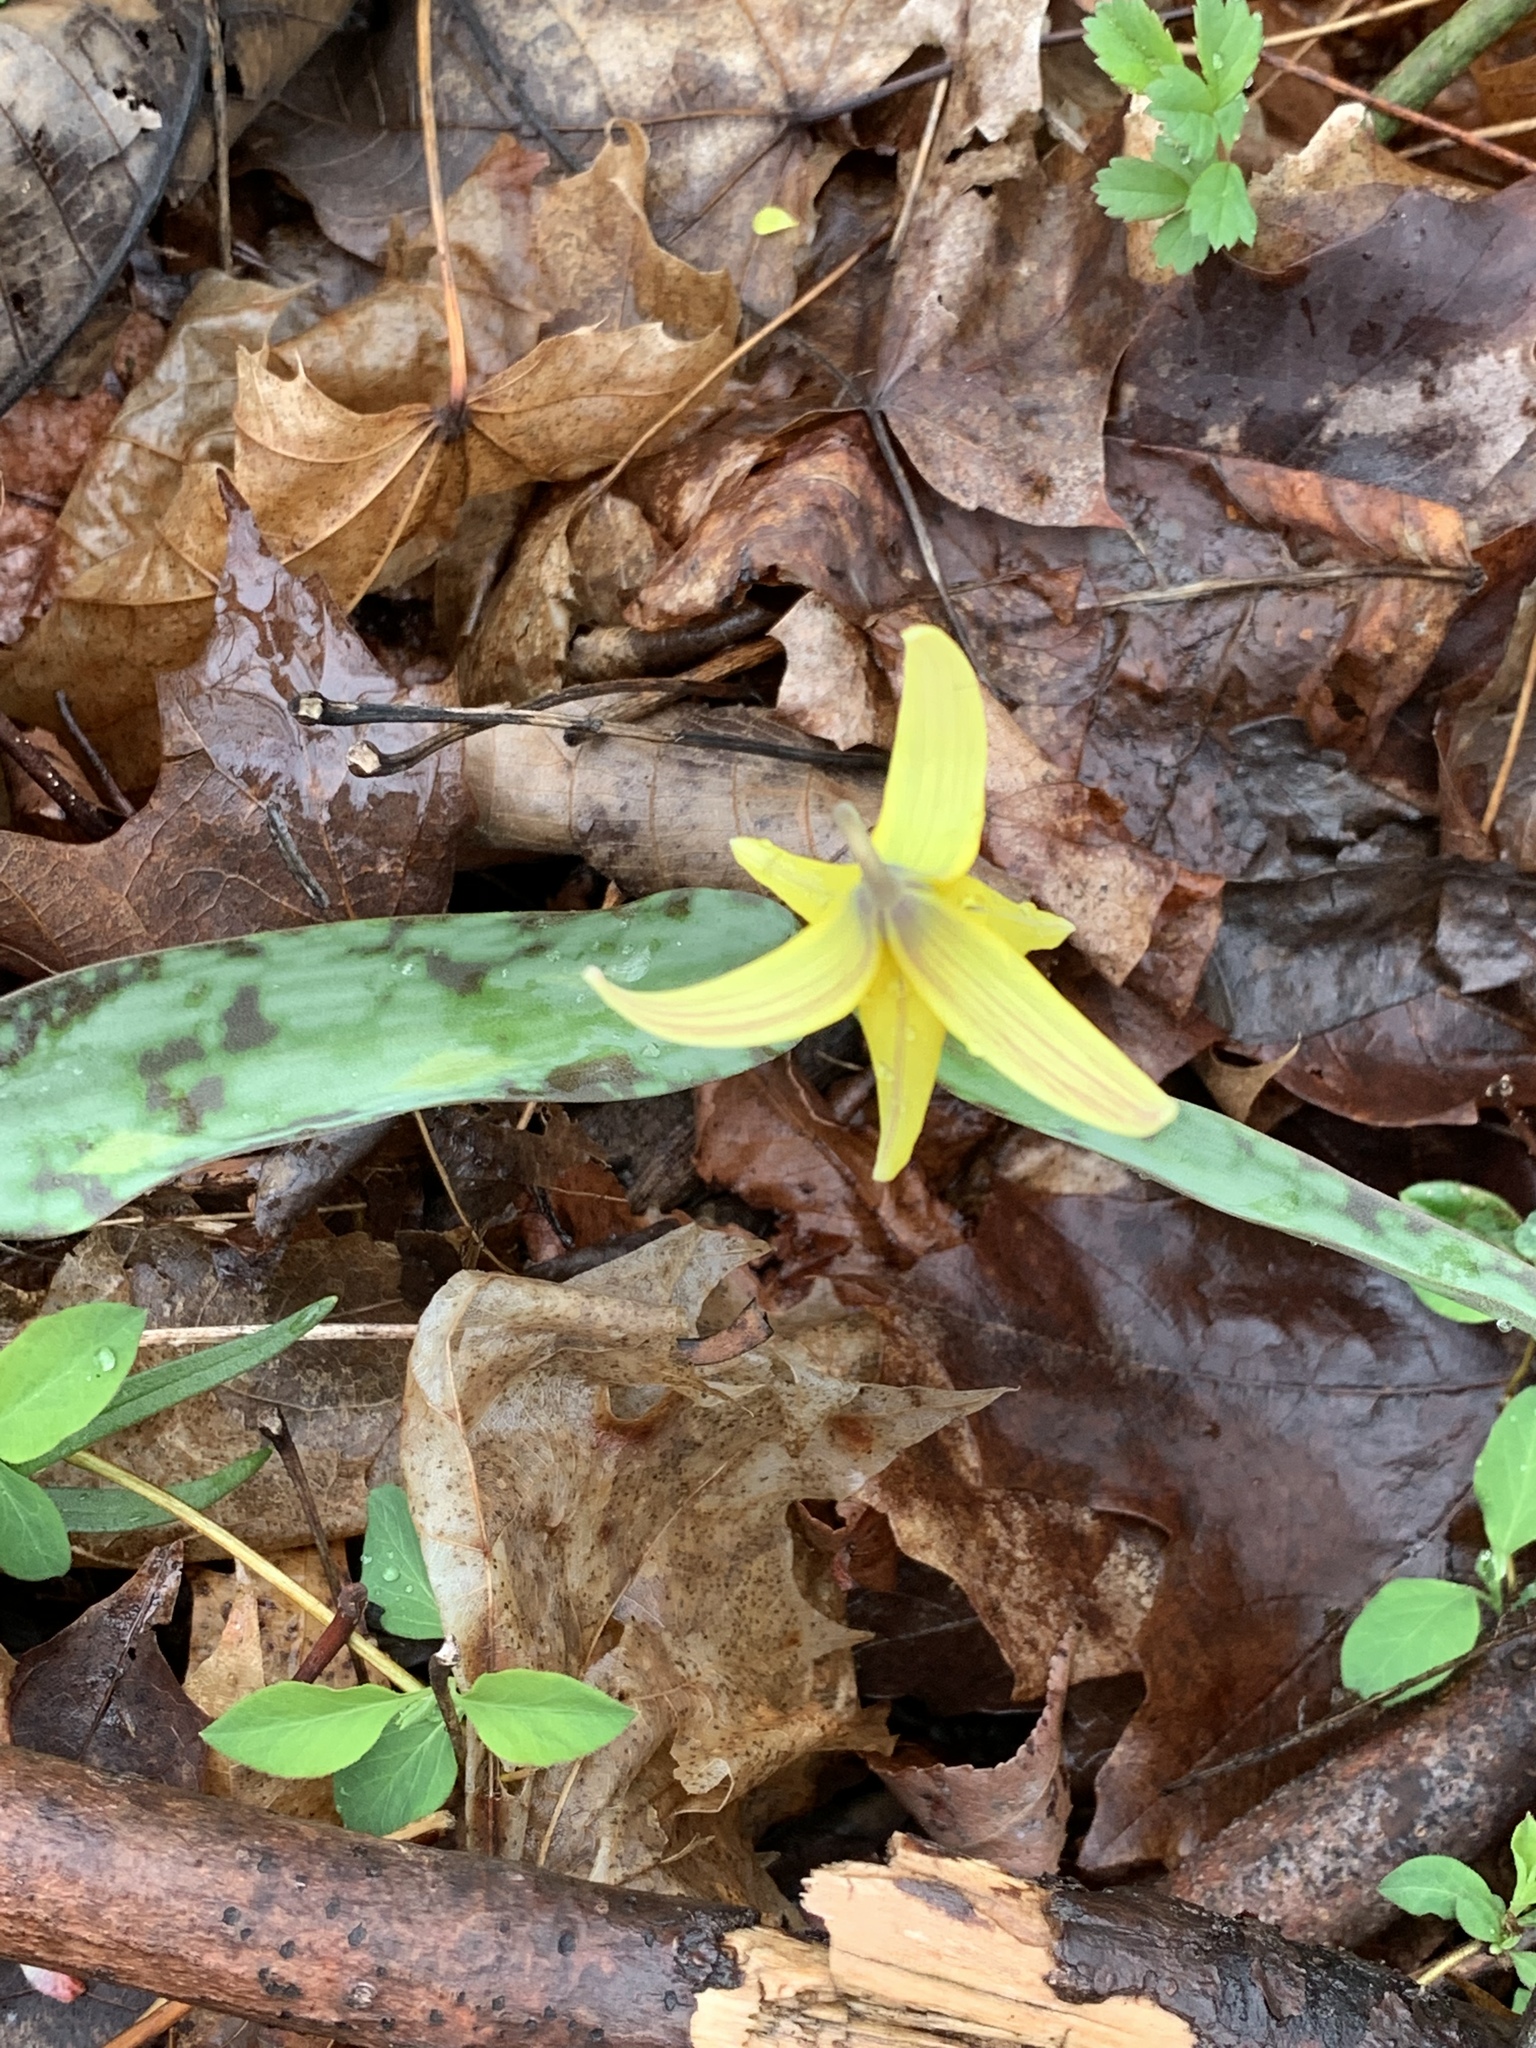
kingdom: Plantae
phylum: Tracheophyta
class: Liliopsida
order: Liliales
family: Liliaceae
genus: Erythronium
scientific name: Erythronium americanum
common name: Yellow adder's-tongue
